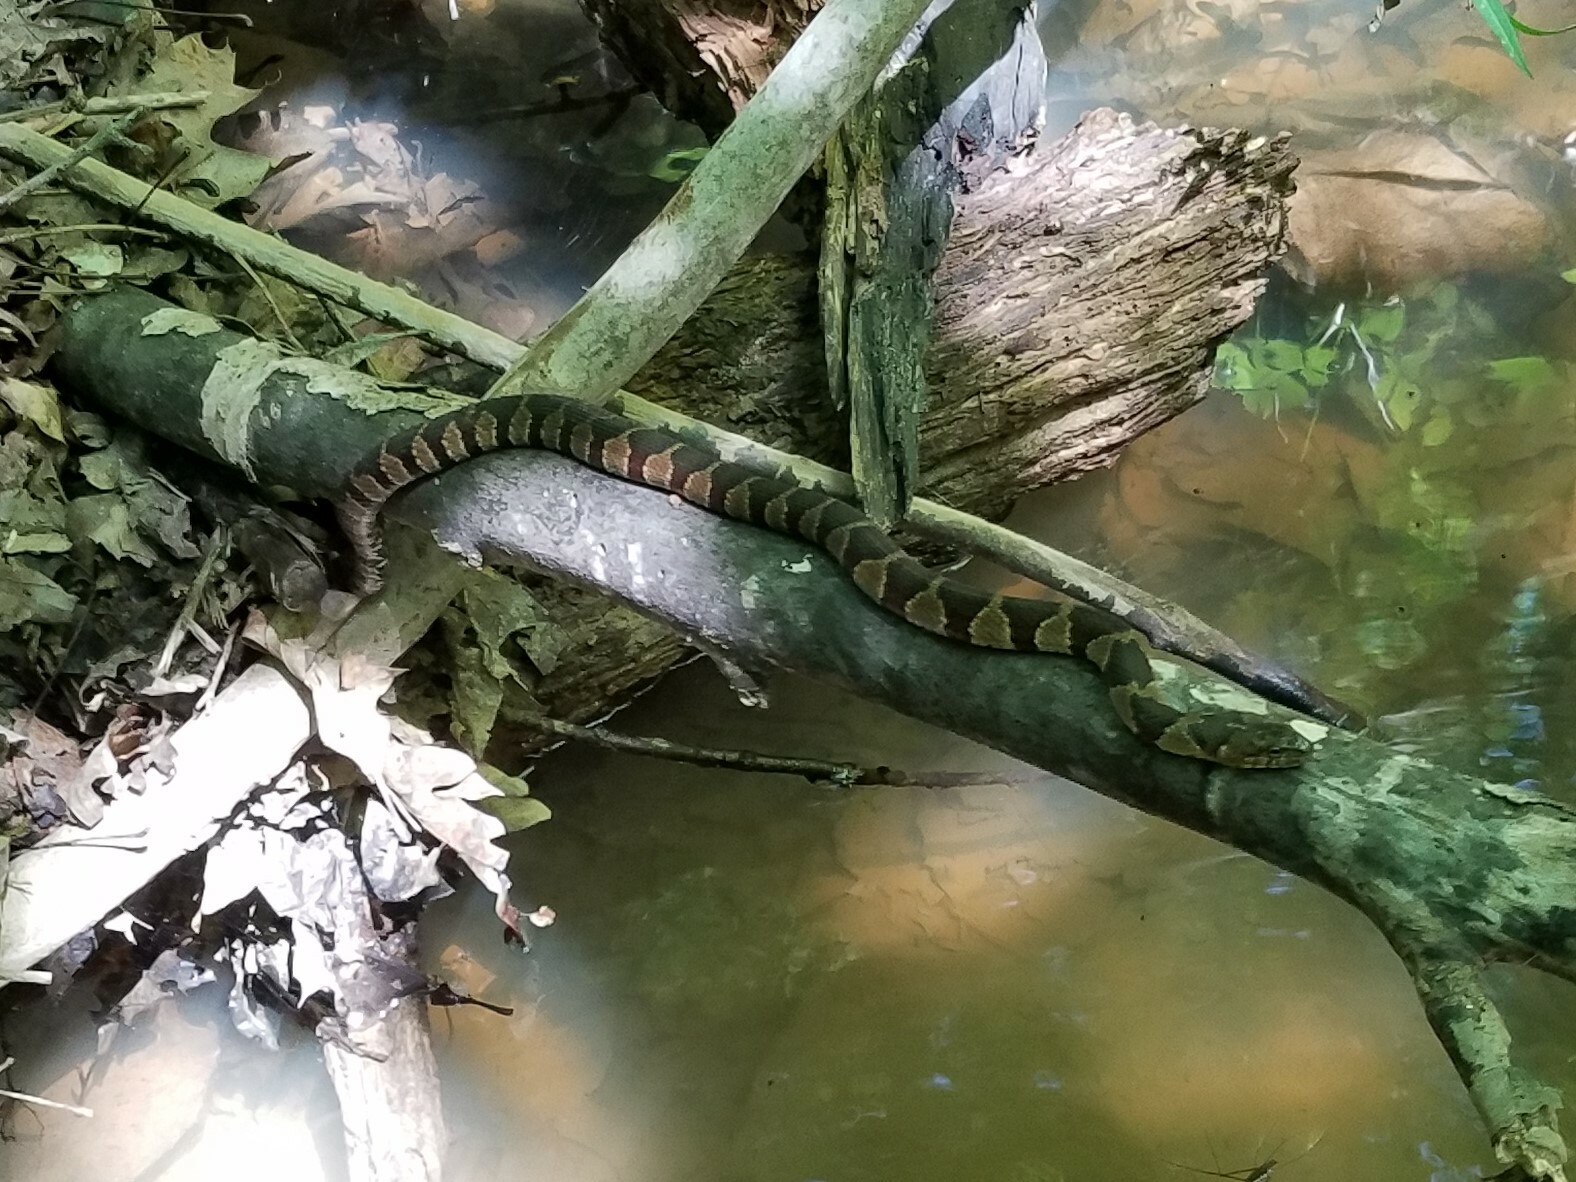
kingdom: Animalia
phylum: Chordata
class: Squamata
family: Colubridae
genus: Nerodia
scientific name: Nerodia sipedon
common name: Northern water snake
